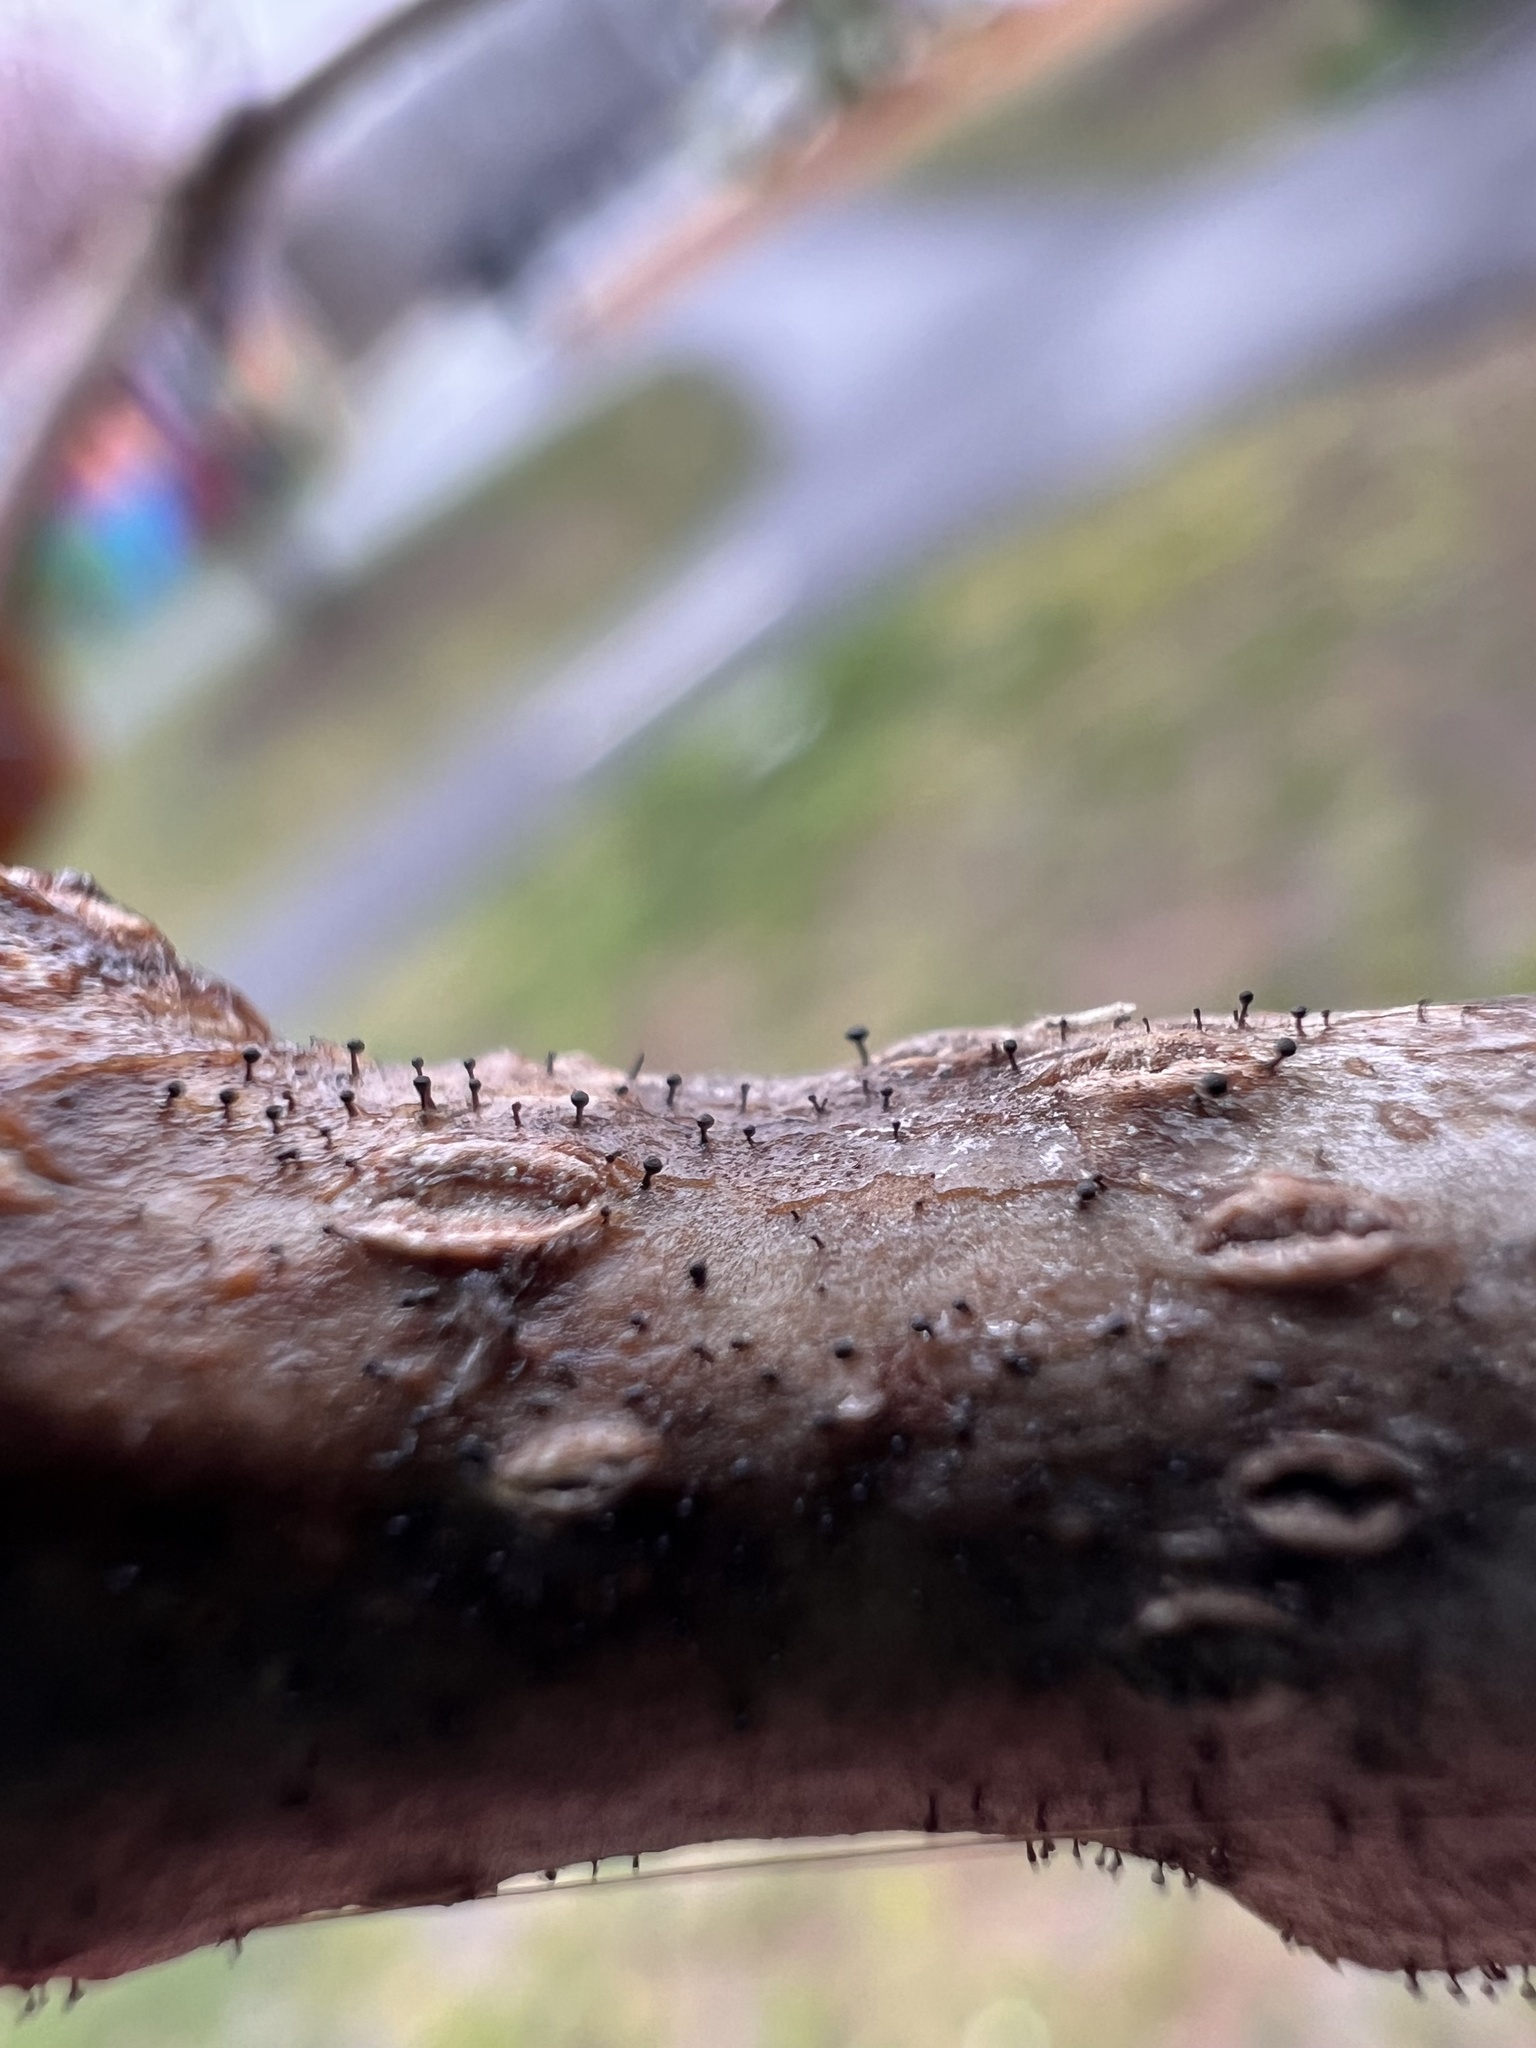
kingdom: Fungi
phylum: Ascomycota
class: Eurotiomycetes
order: Mycocaliciales
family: Mycocaliciaceae
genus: Phaeocalicium
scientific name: Phaeocalicium populneum
